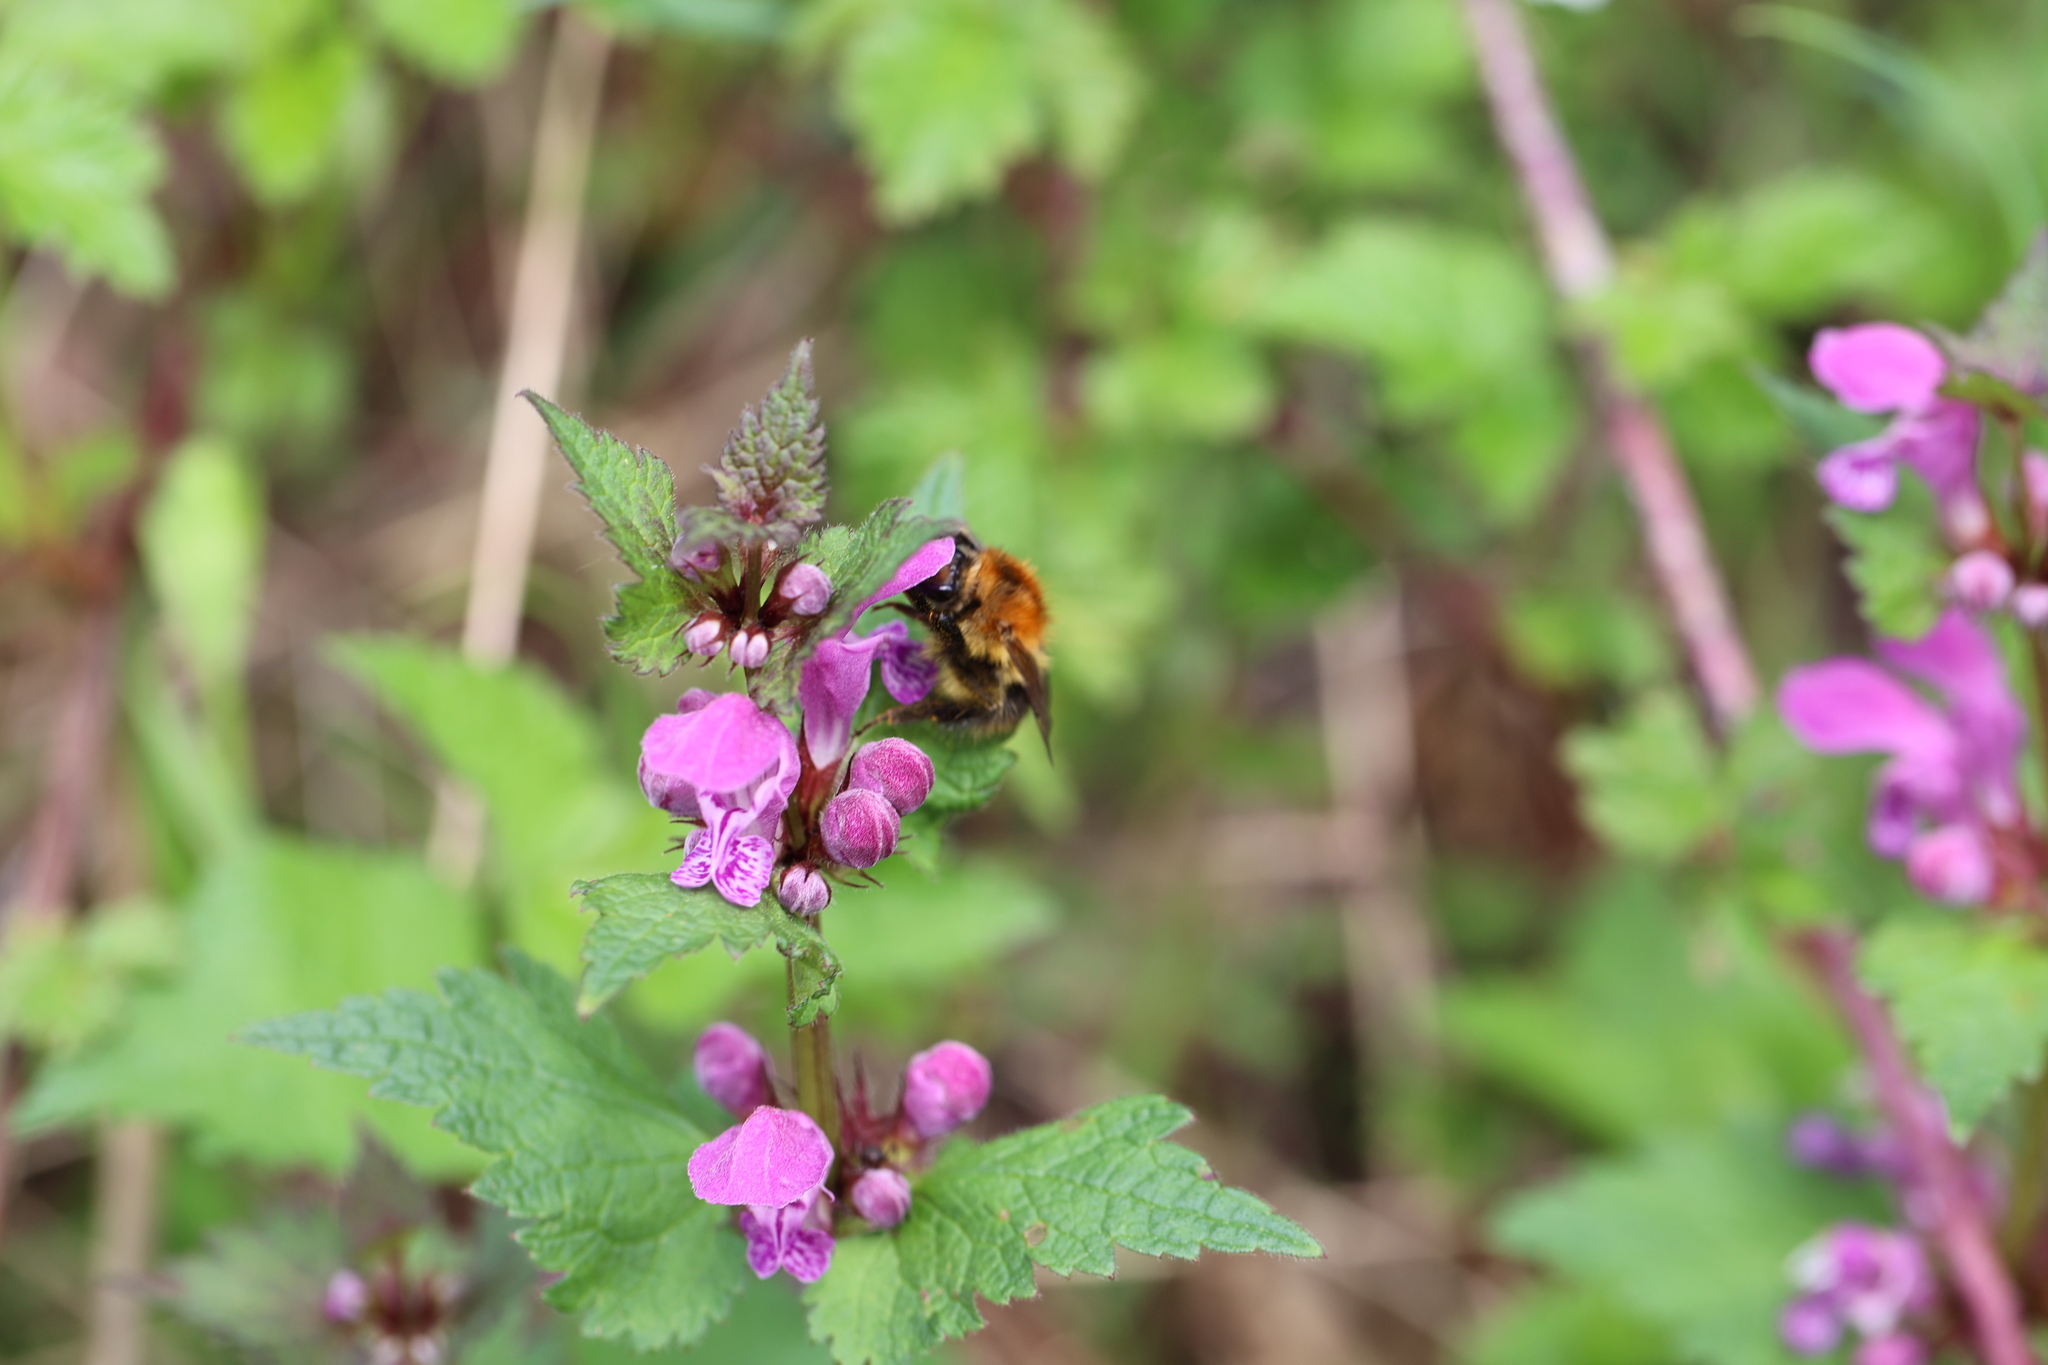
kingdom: Animalia
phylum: Arthropoda
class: Insecta
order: Hymenoptera
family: Apidae
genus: Bombus
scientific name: Bombus pascuorum
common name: Common carder bee
